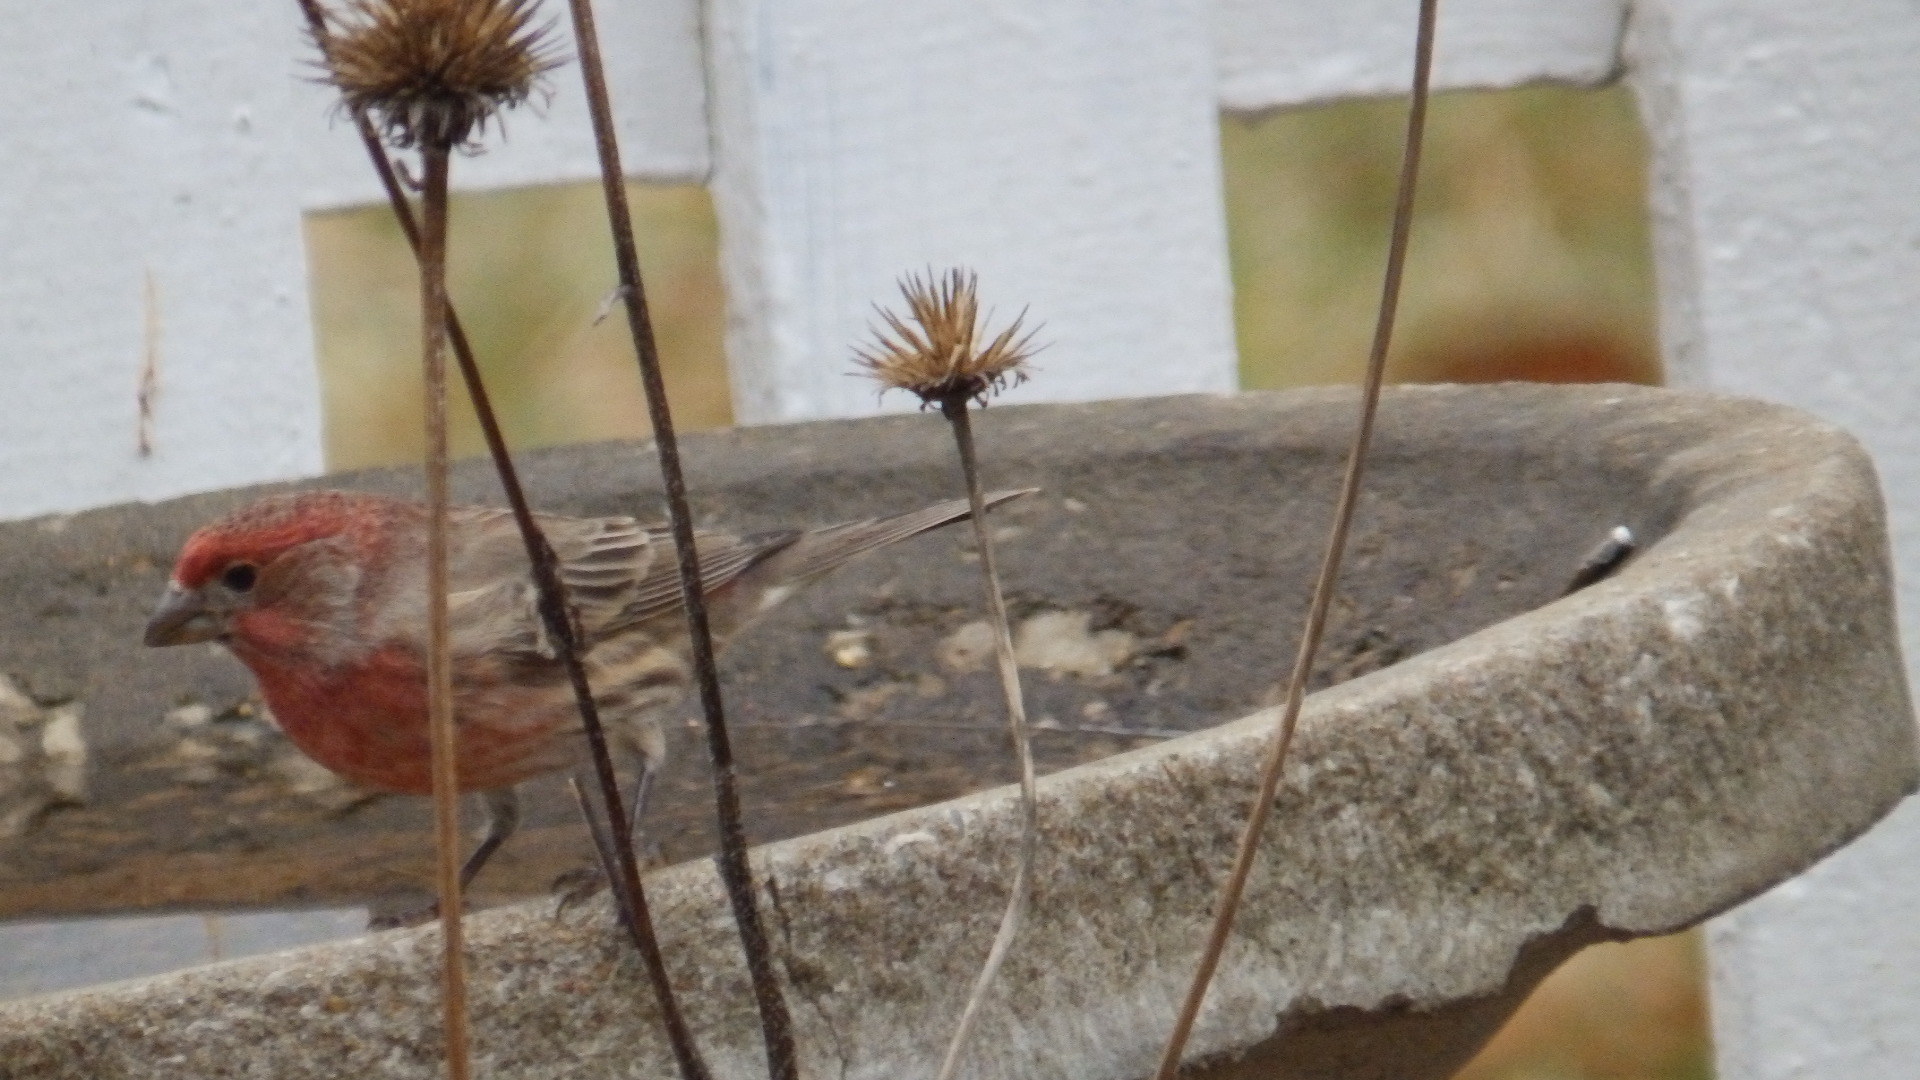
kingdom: Animalia
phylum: Chordata
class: Aves
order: Passeriformes
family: Fringillidae
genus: Haemorhous
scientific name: Haemorhous mexicanus
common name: House finch
